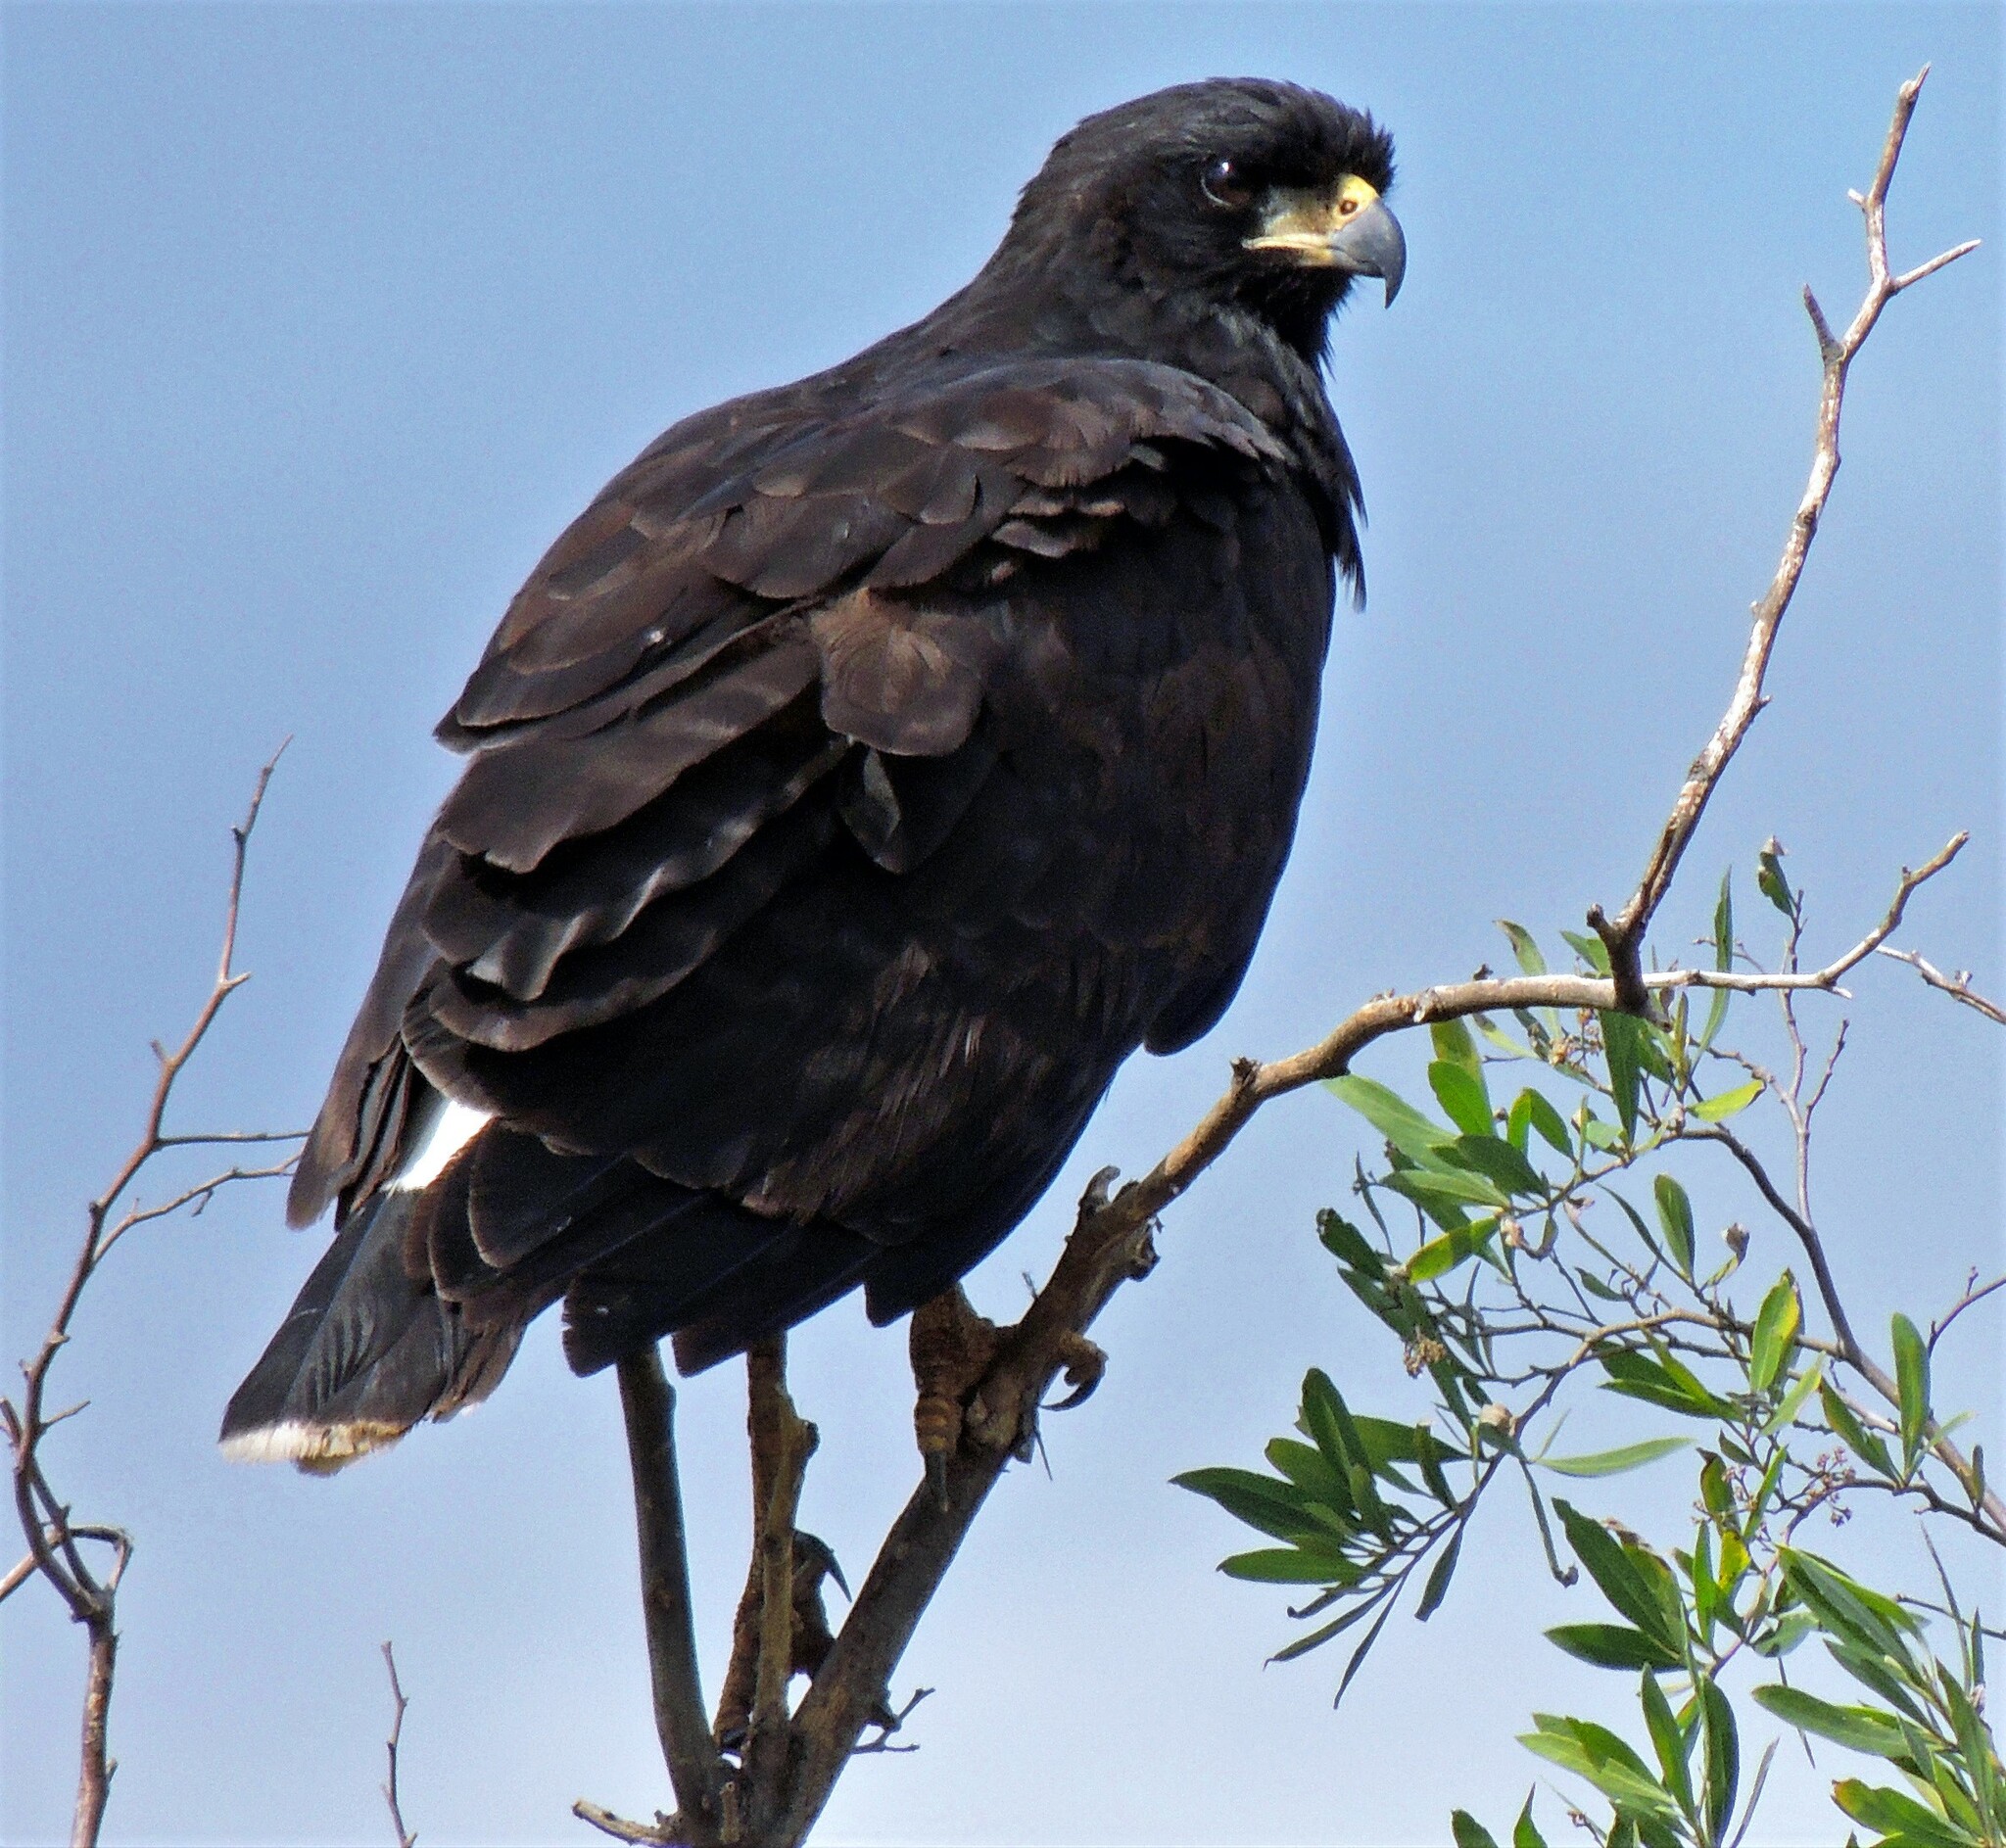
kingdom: Animalia
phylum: Chordata
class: Aves
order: Accipitriformes
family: Accipitridae
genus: Buteogallus
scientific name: Buteogallus urubitinga
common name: Great black hawk
